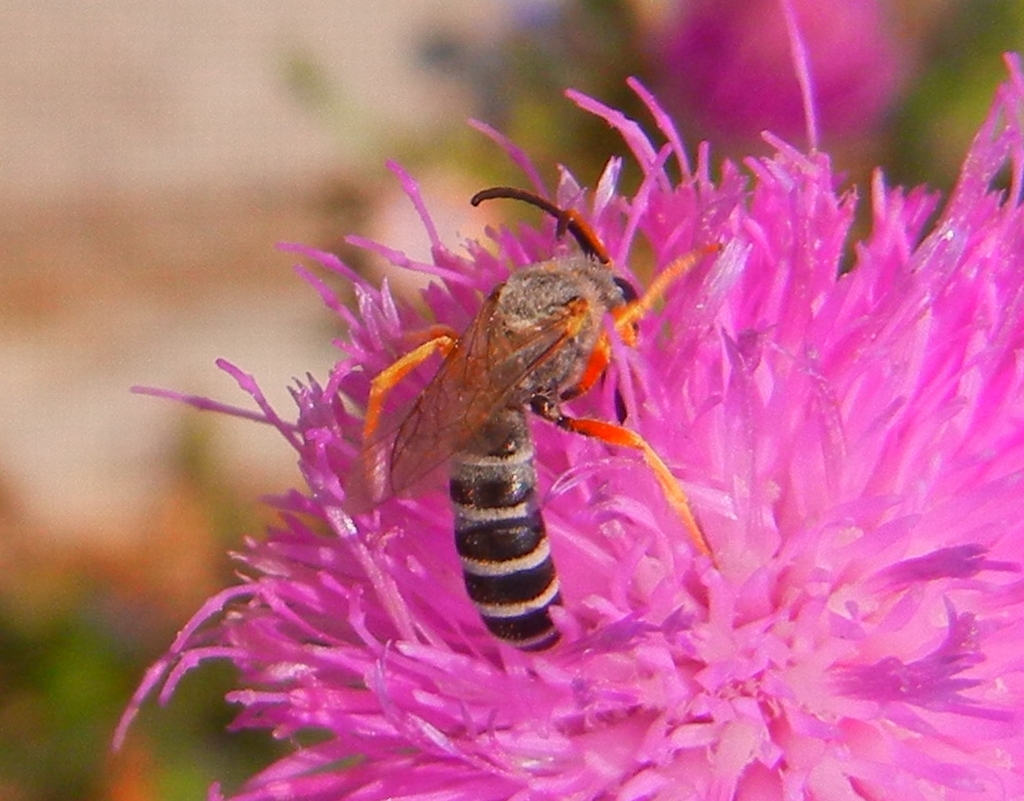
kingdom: Animalia
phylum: Arthropoda
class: Insecta
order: Hymenoptera
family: Halictidae
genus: Halictus
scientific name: Halictus resurgens
